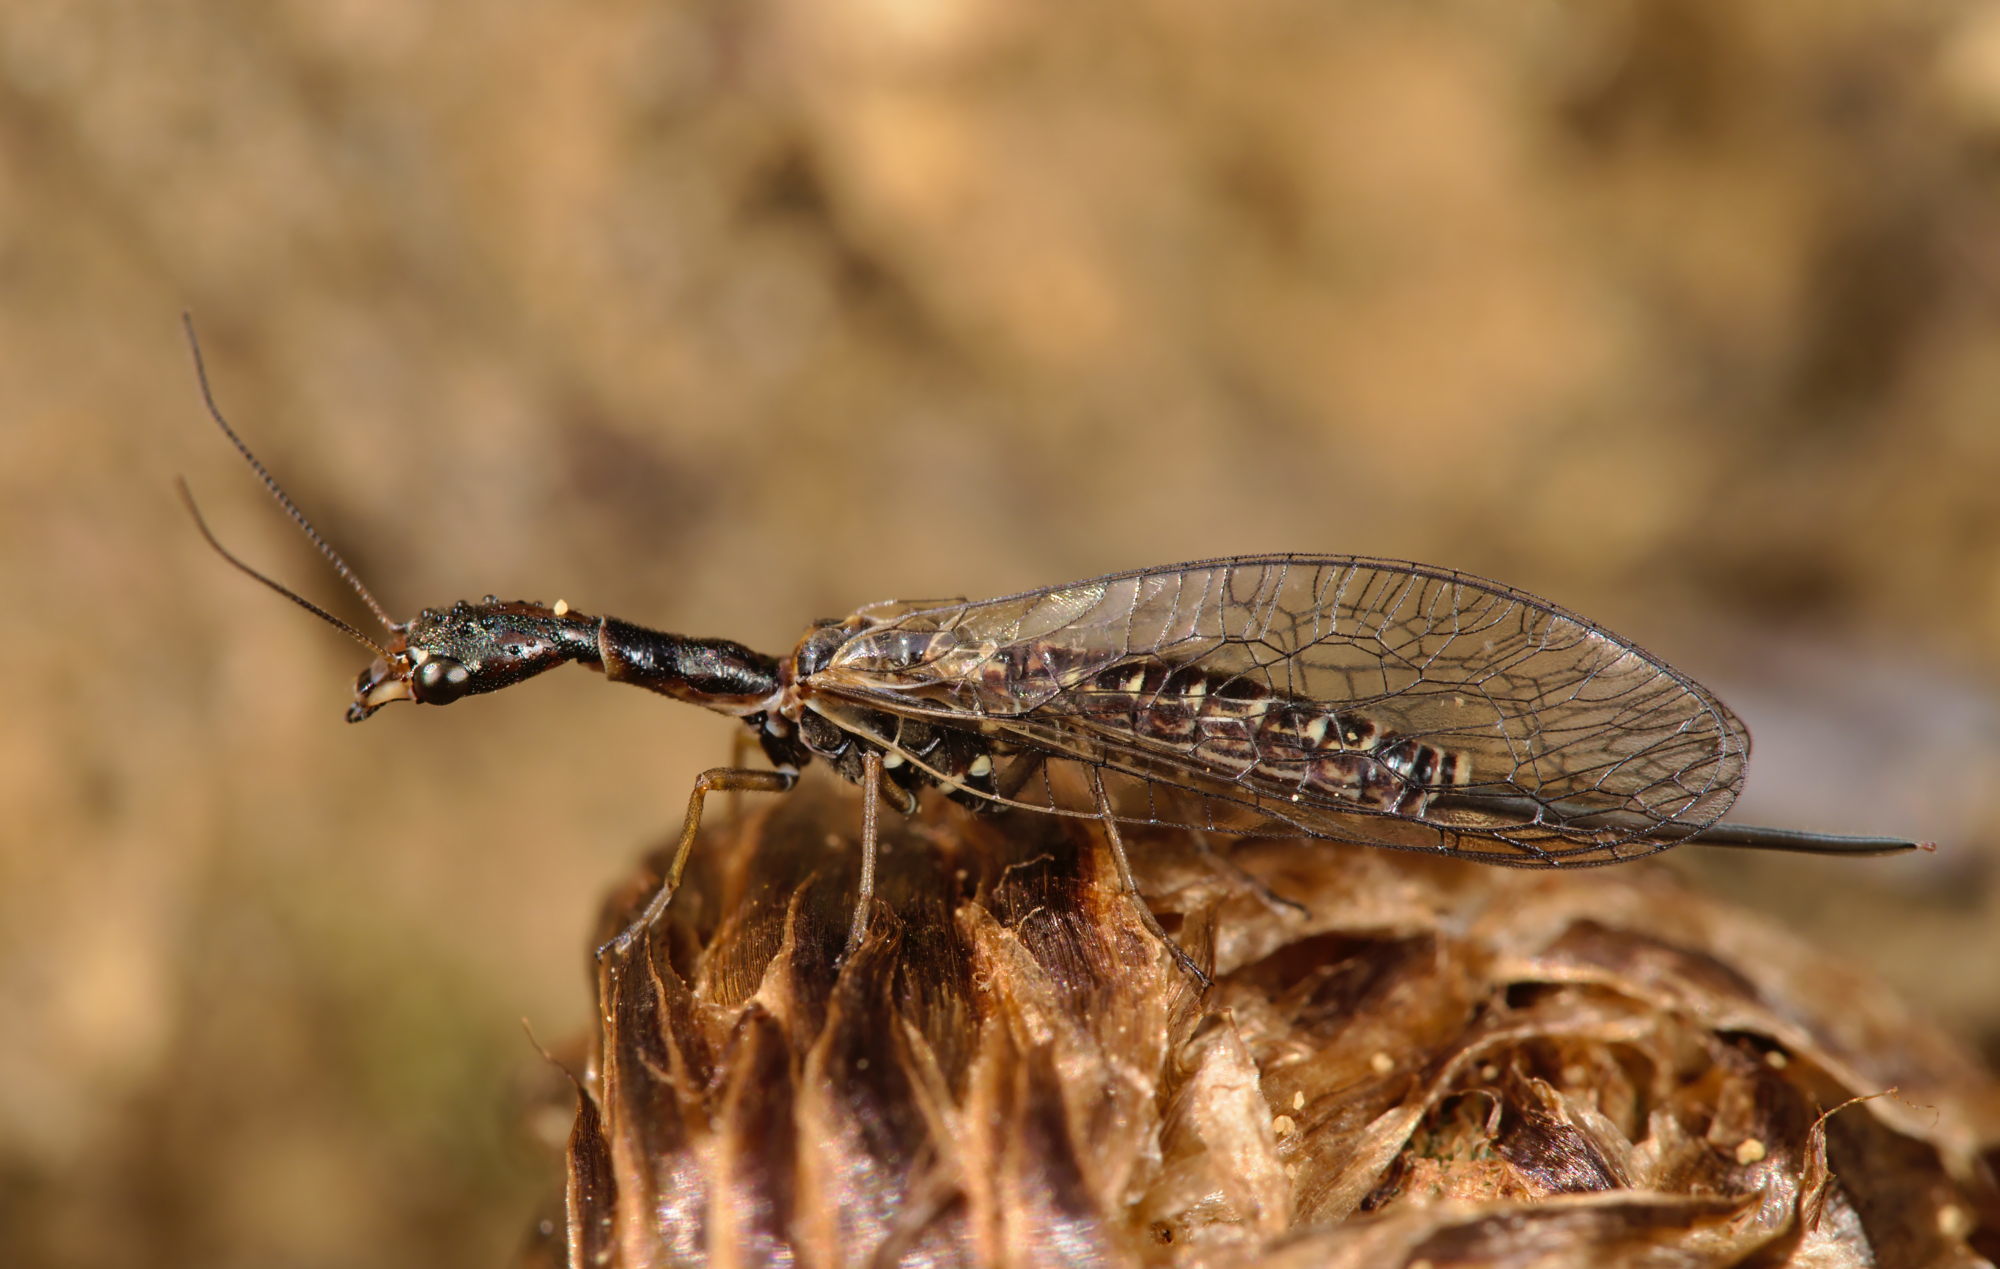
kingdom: Animalia
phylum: Arthropoda
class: Insecta
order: Raphidioptera
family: Raphidiidae
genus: Atlantoraphidia
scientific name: Atlantoraphidia maculicollis
